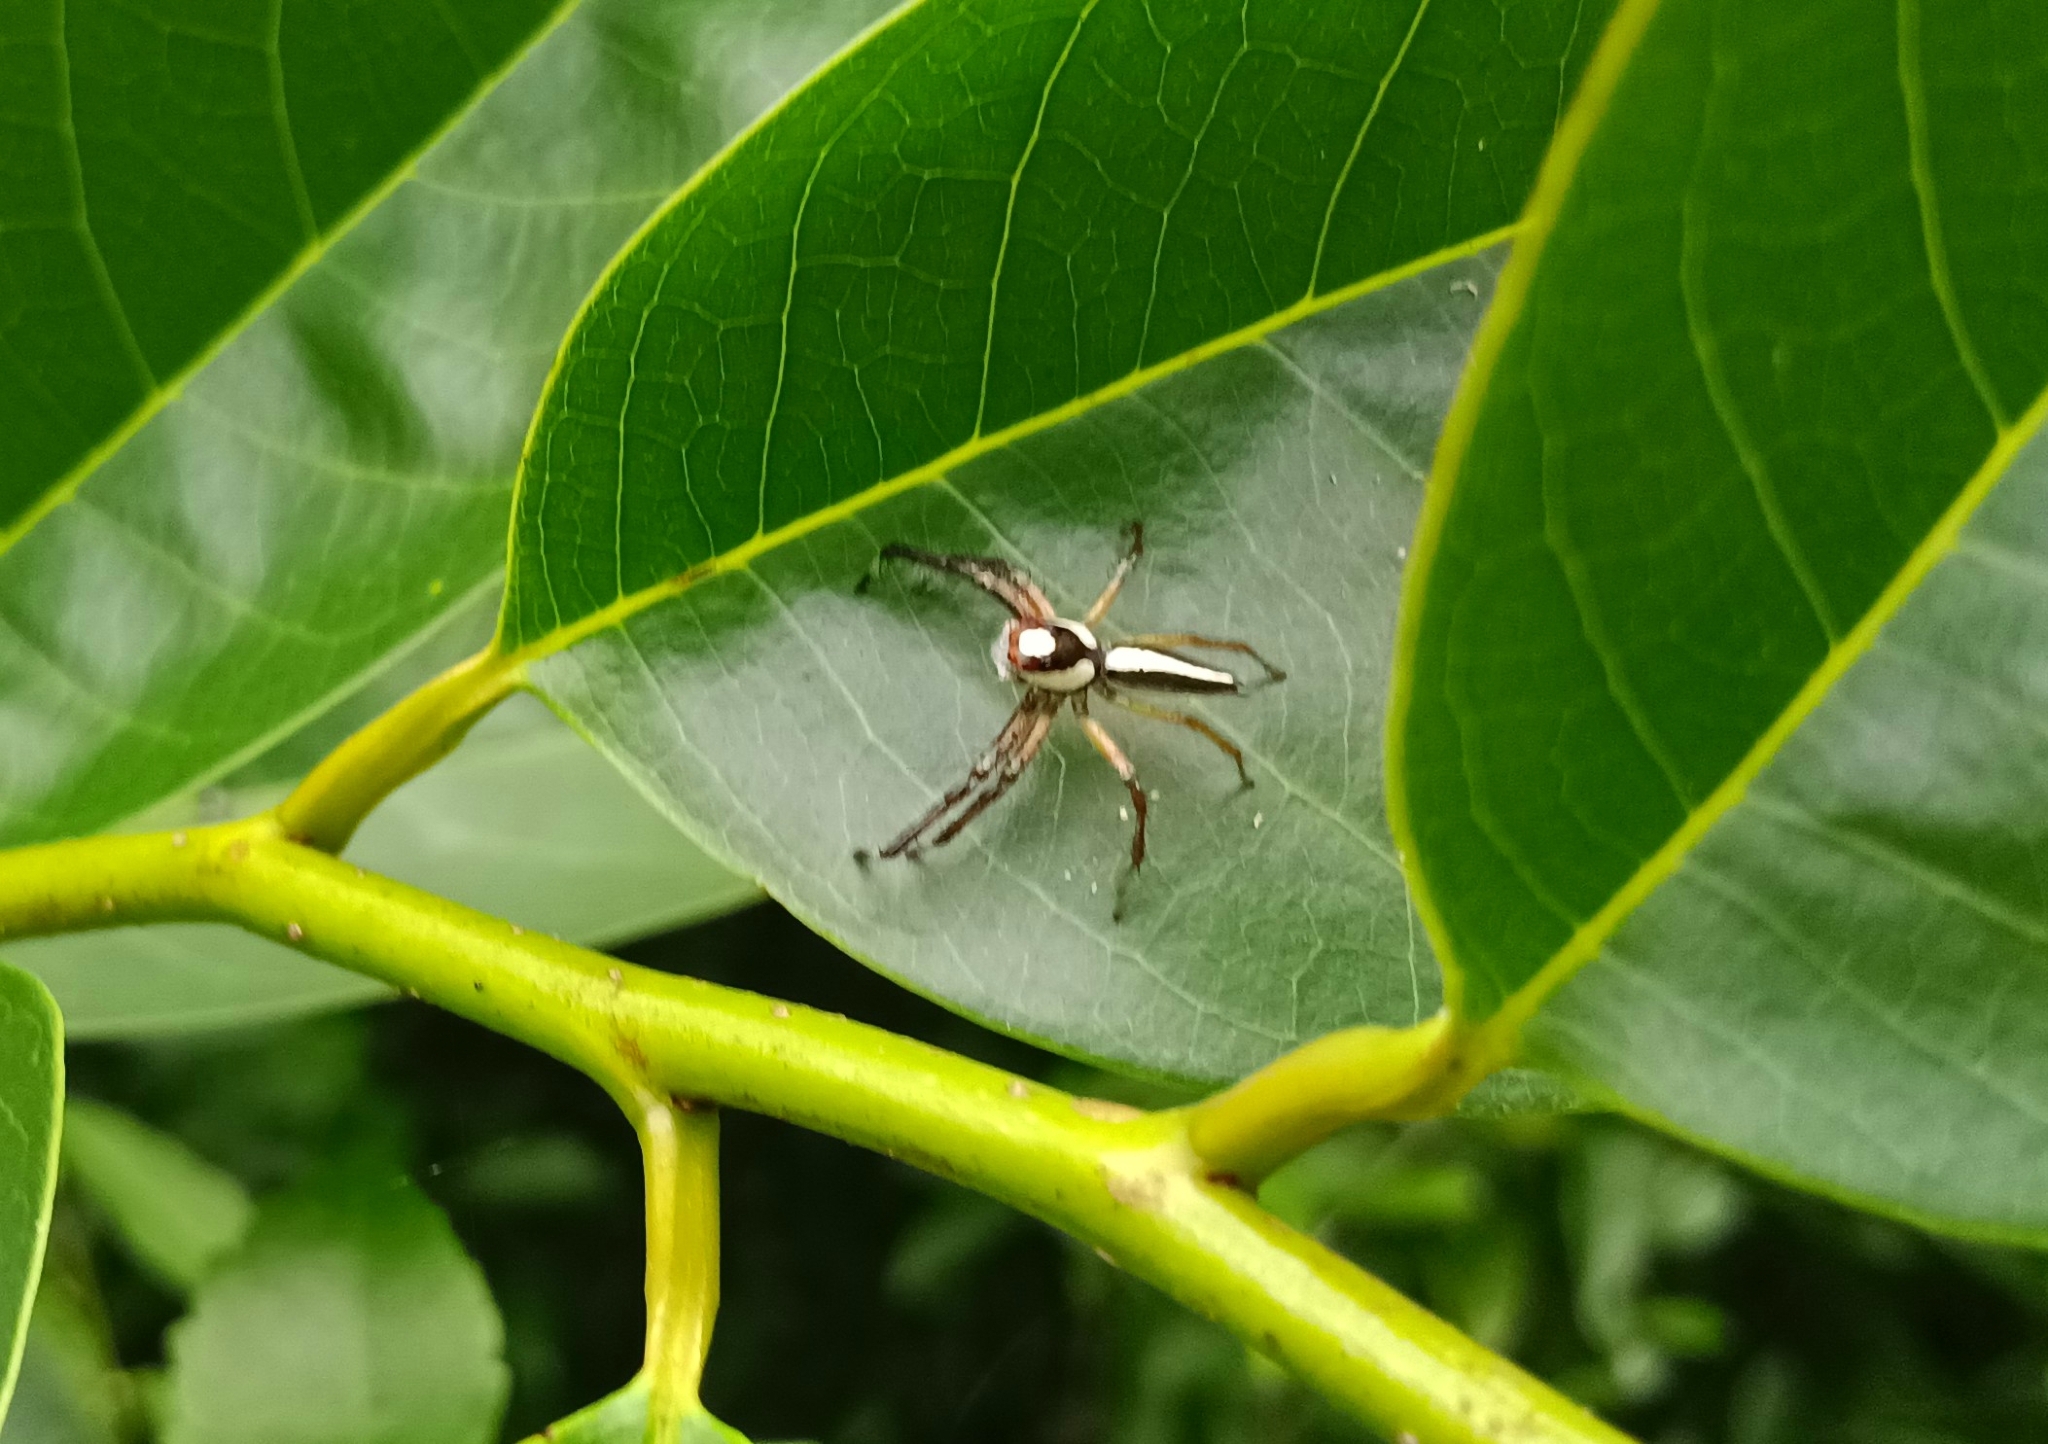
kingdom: Animalia
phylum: Arthropoda
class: Arachnida
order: Araneae
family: Salticidae
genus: Telamonia
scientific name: Telamonia dimidiata
